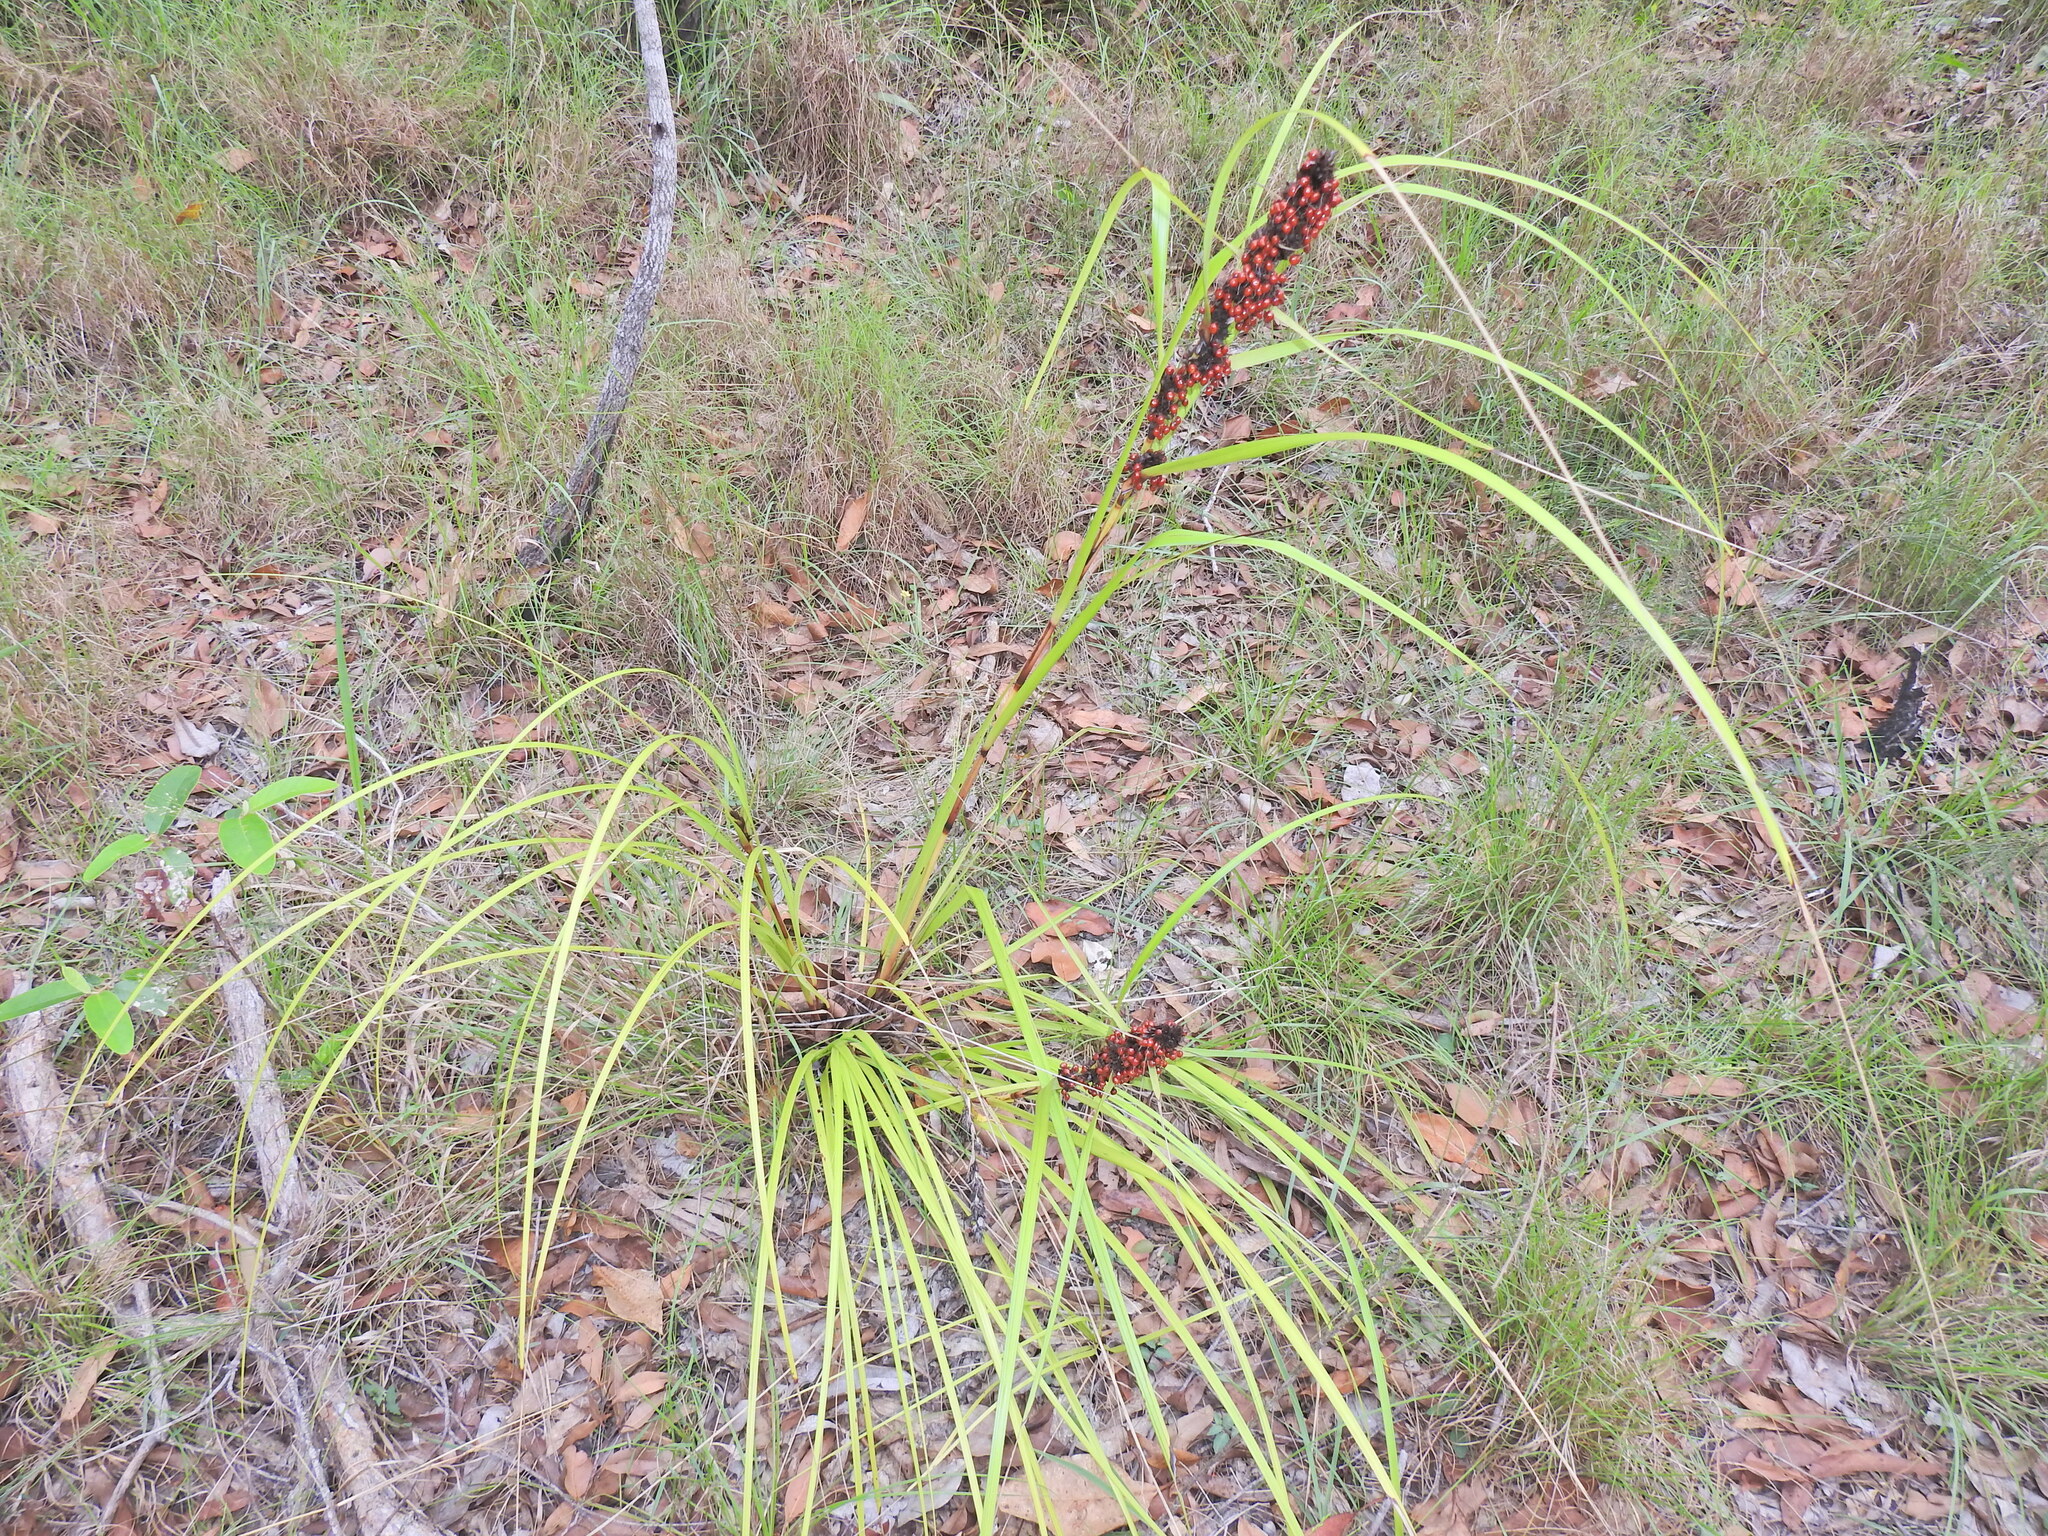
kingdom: Plantae
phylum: Tracheophyta
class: Liliopsida
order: Poales
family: Cyperaceae
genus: Gahnia
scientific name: Gahnia aspera
